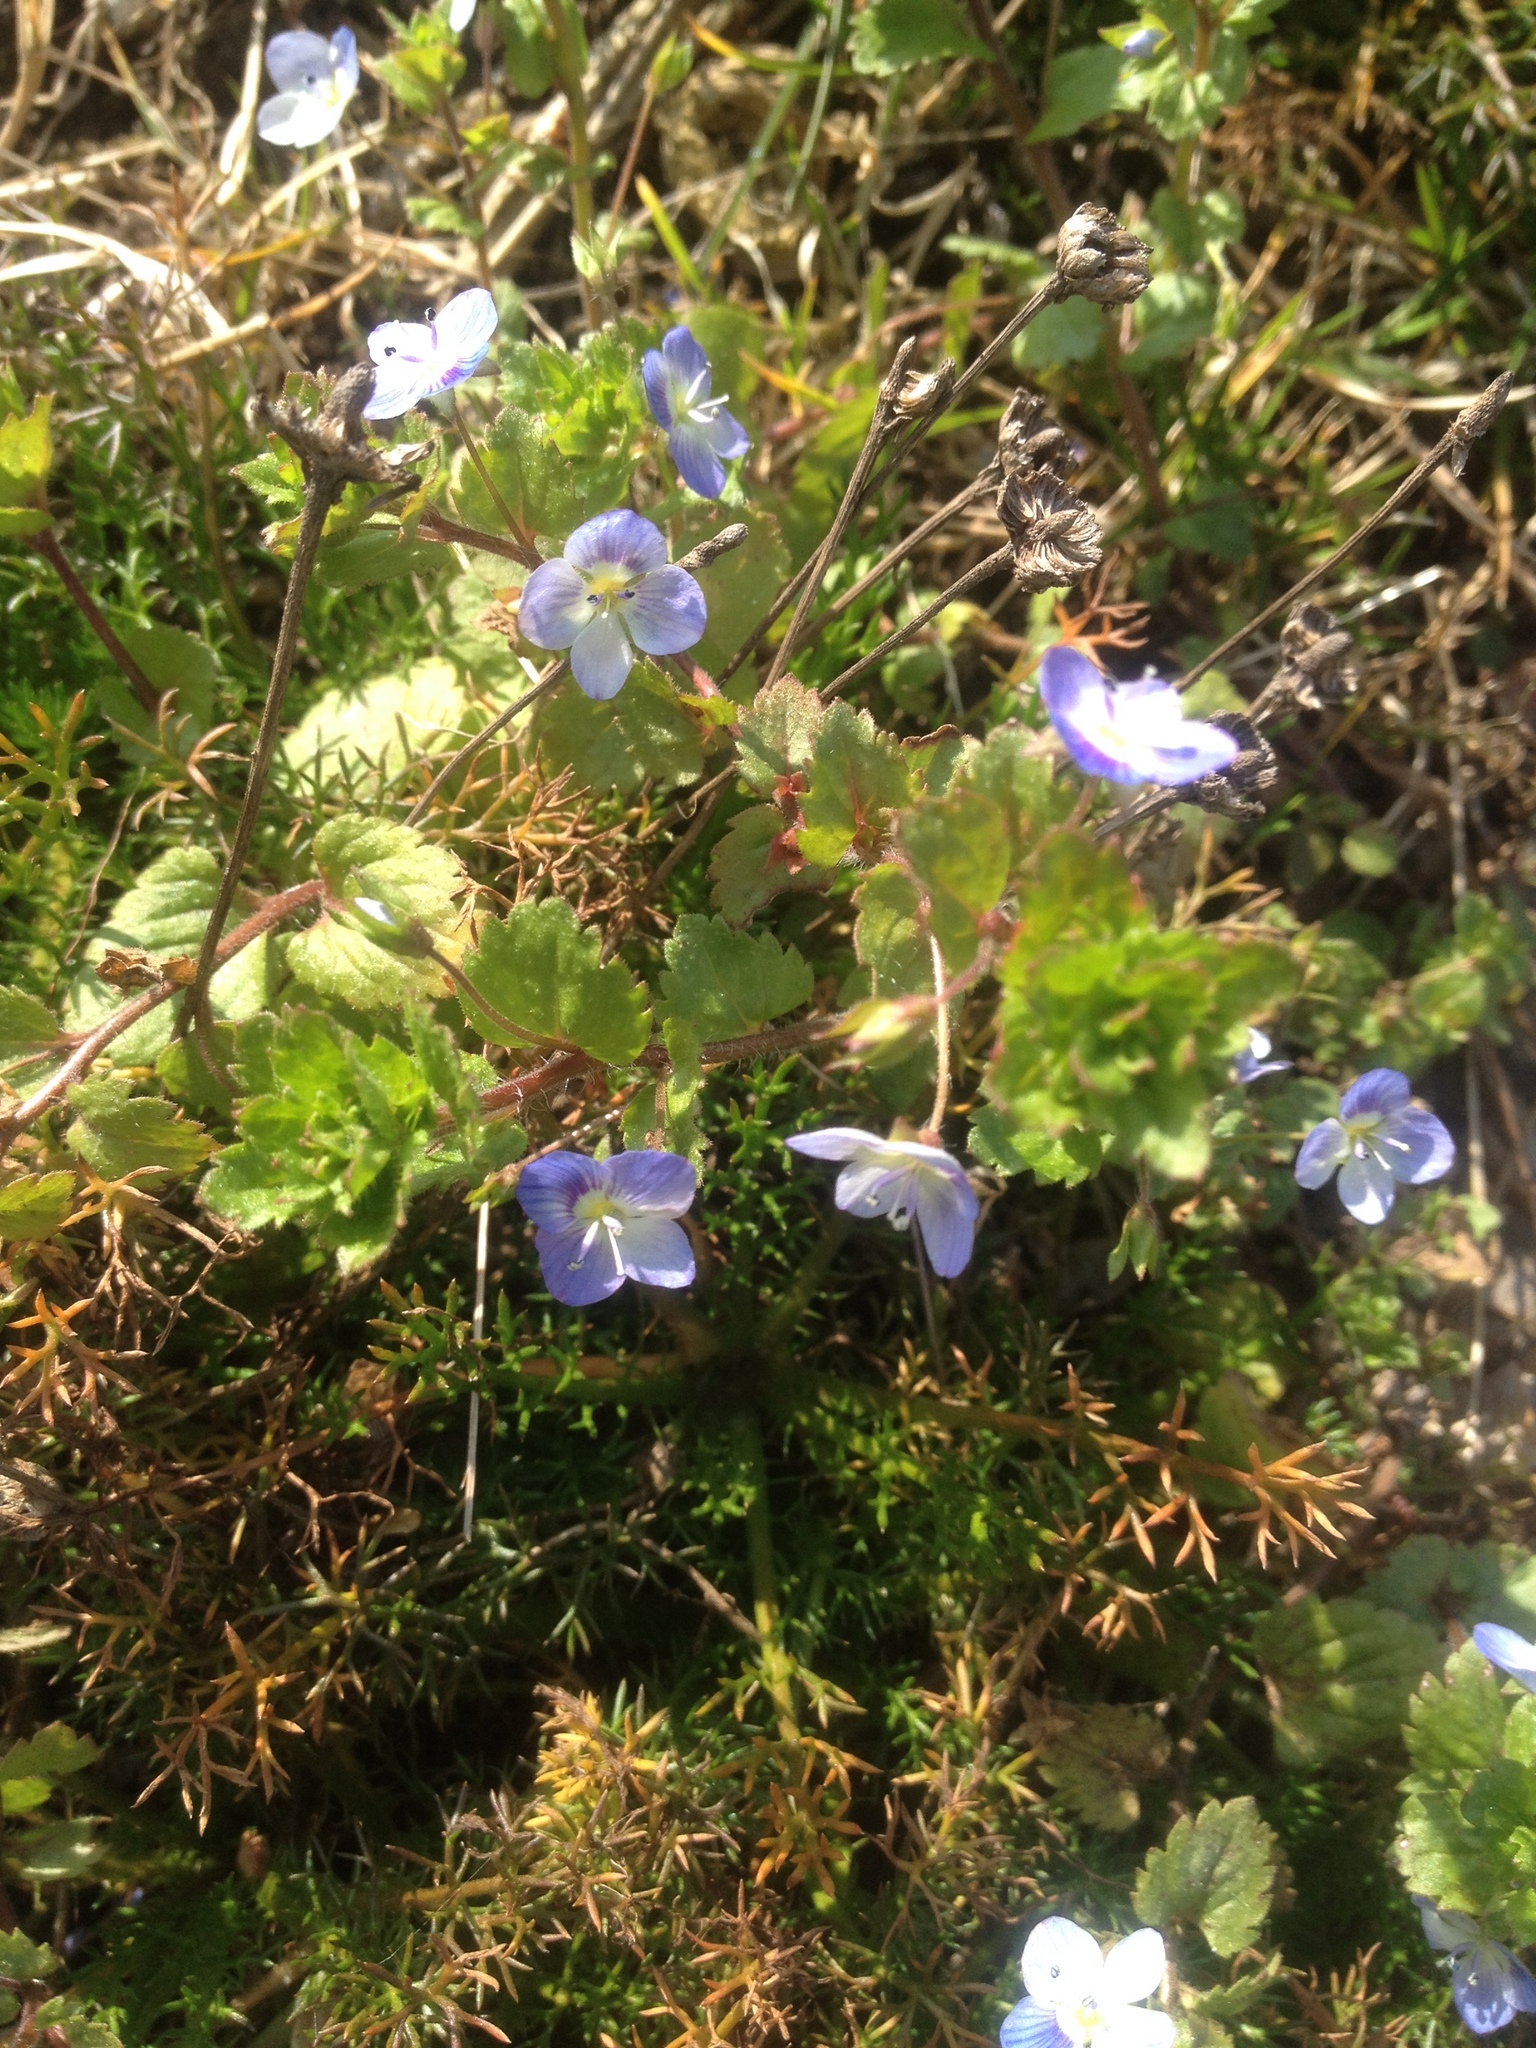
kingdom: Plantae
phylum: Tracheophyta
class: Magnoliopsida
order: Lamiales
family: Plantaginaceae
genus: Veronica
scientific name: Veronica persica
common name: Common field-speedwell
